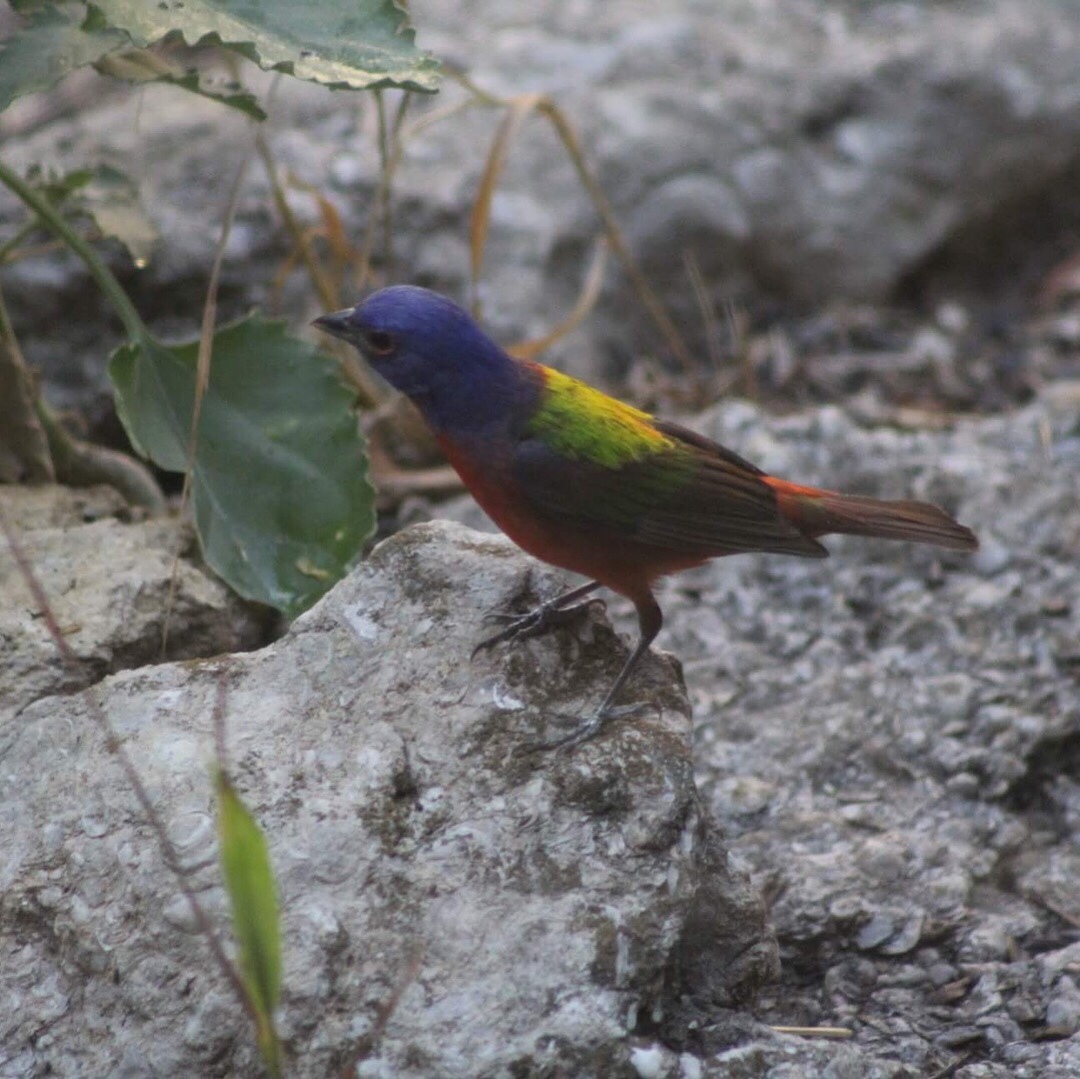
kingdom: Animalia
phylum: Chordata
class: Aves
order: Passeriformes
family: Cardinalidae
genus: Passerina
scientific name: Passerina ciris
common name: Painted bunting
